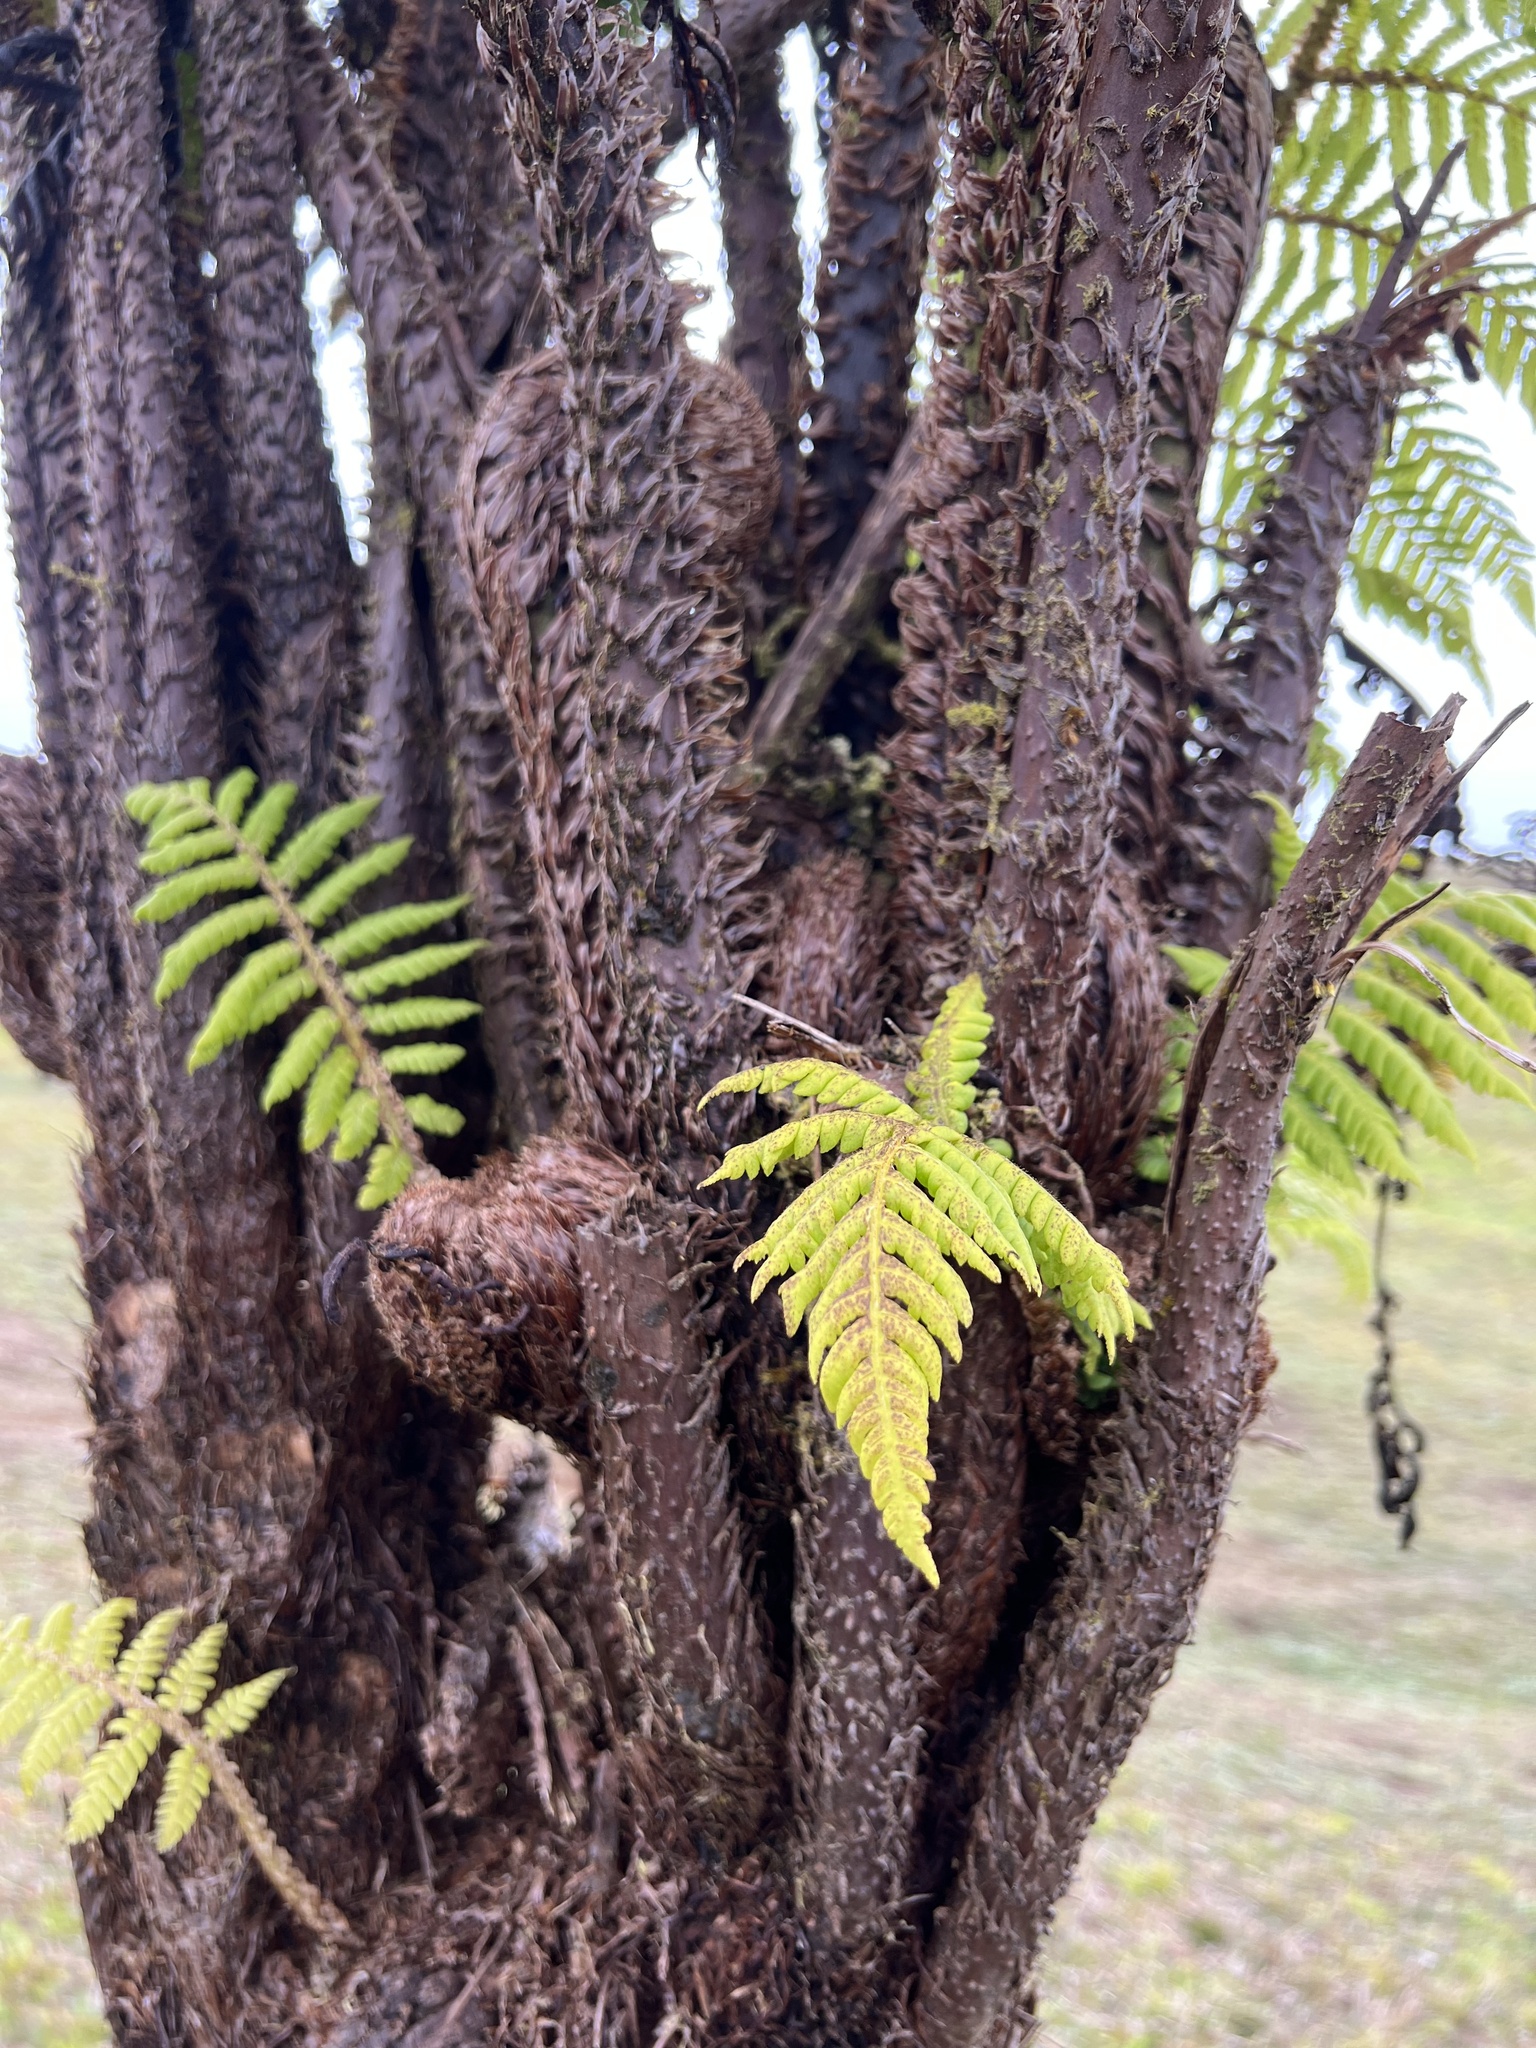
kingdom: Plantae
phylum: Tracheophyta
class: Polypodiopsida
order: Cyatheales
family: Cyatheaceae
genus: Cyathea
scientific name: Cyathea weatherbyana
